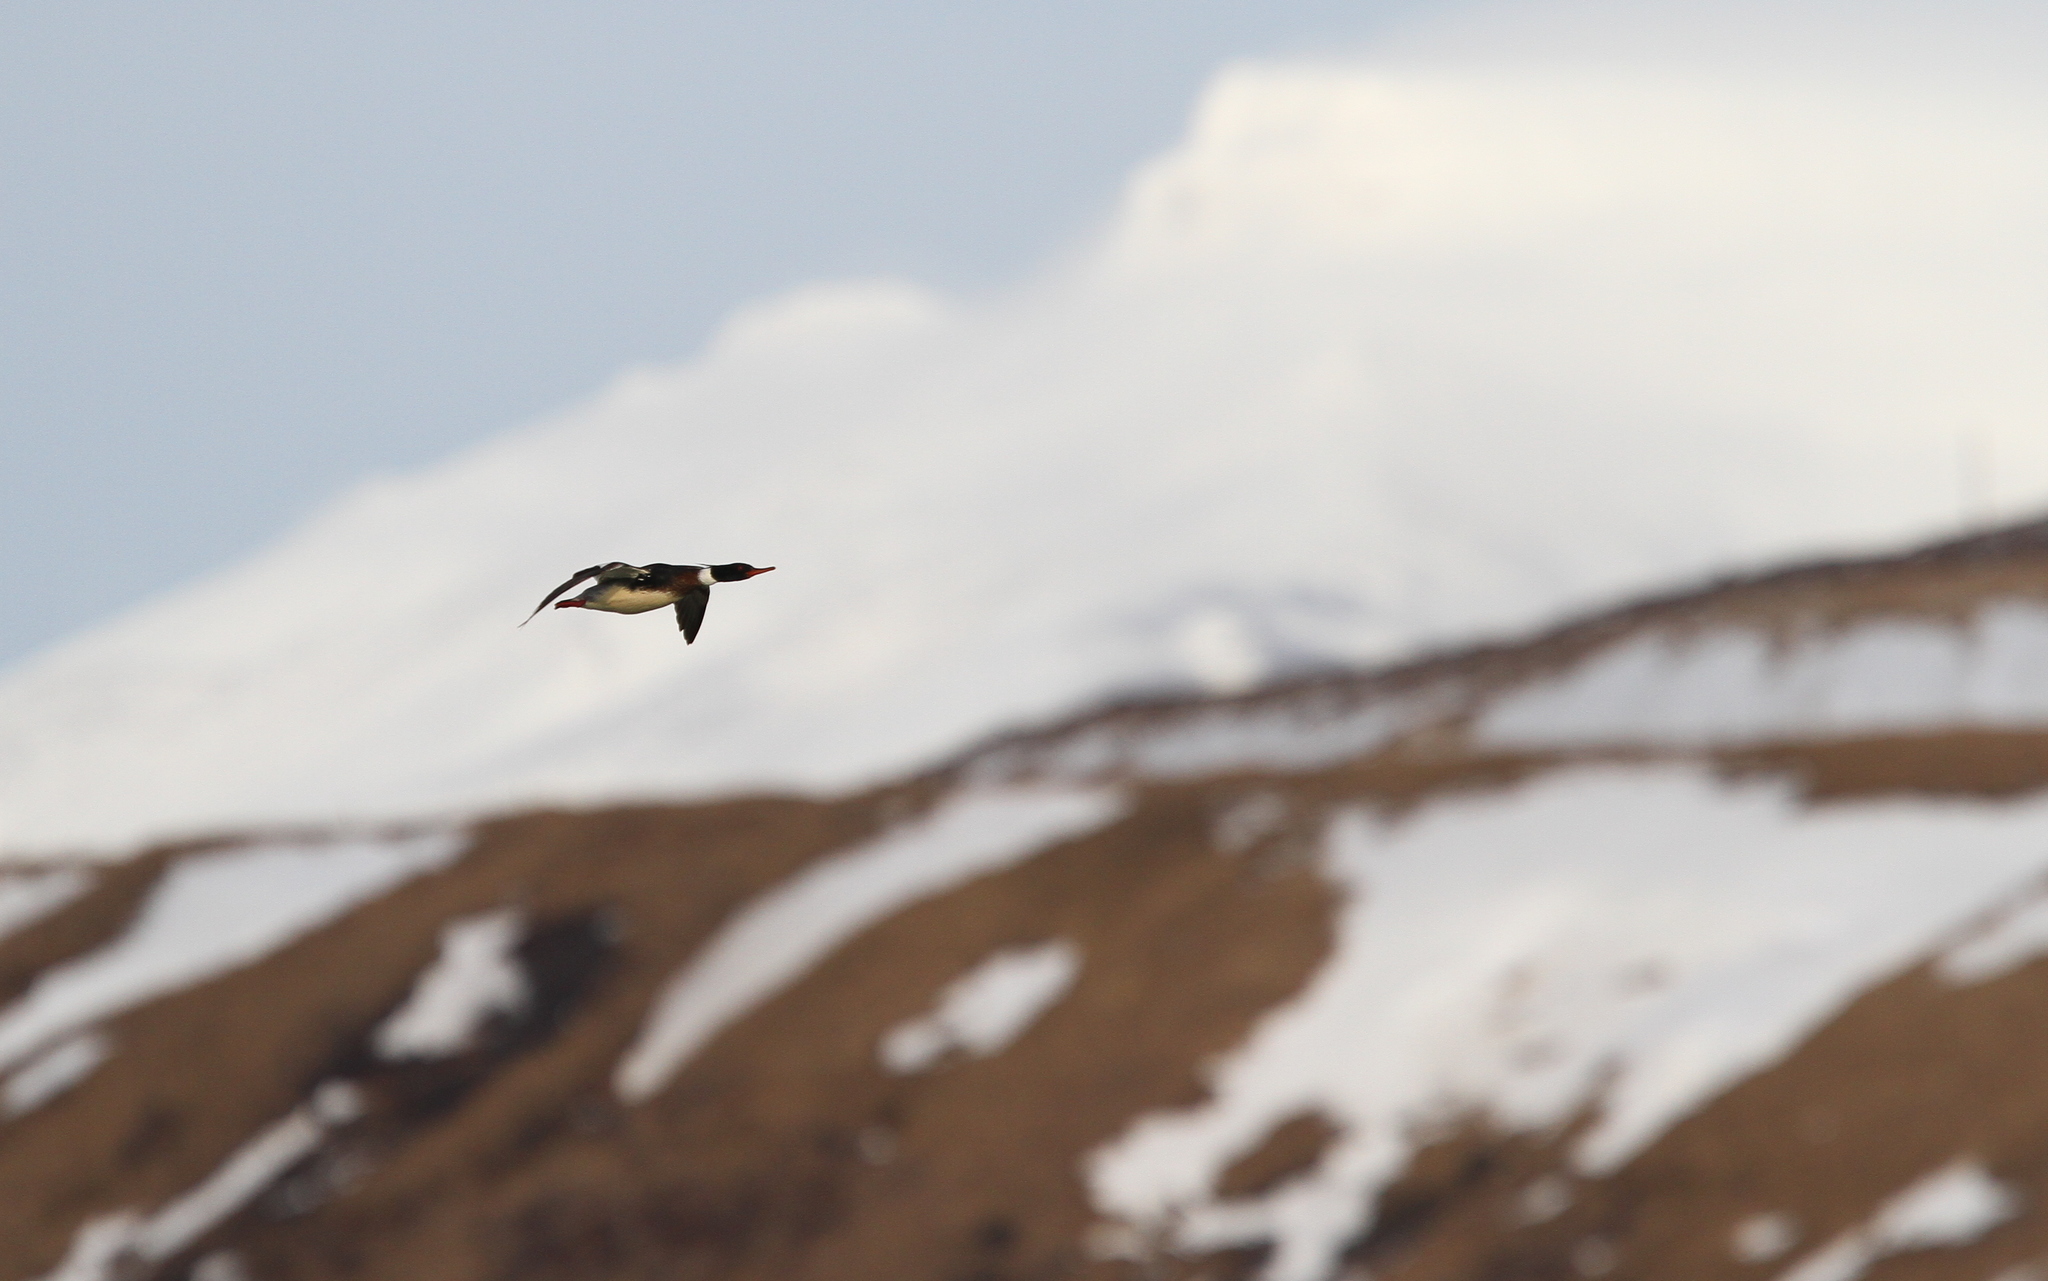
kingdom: Animalia
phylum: Chordata
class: Aves
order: Anseriformes
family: Anatidae
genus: Mergus
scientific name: Mergus serrator
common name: Red-breasted merganser
